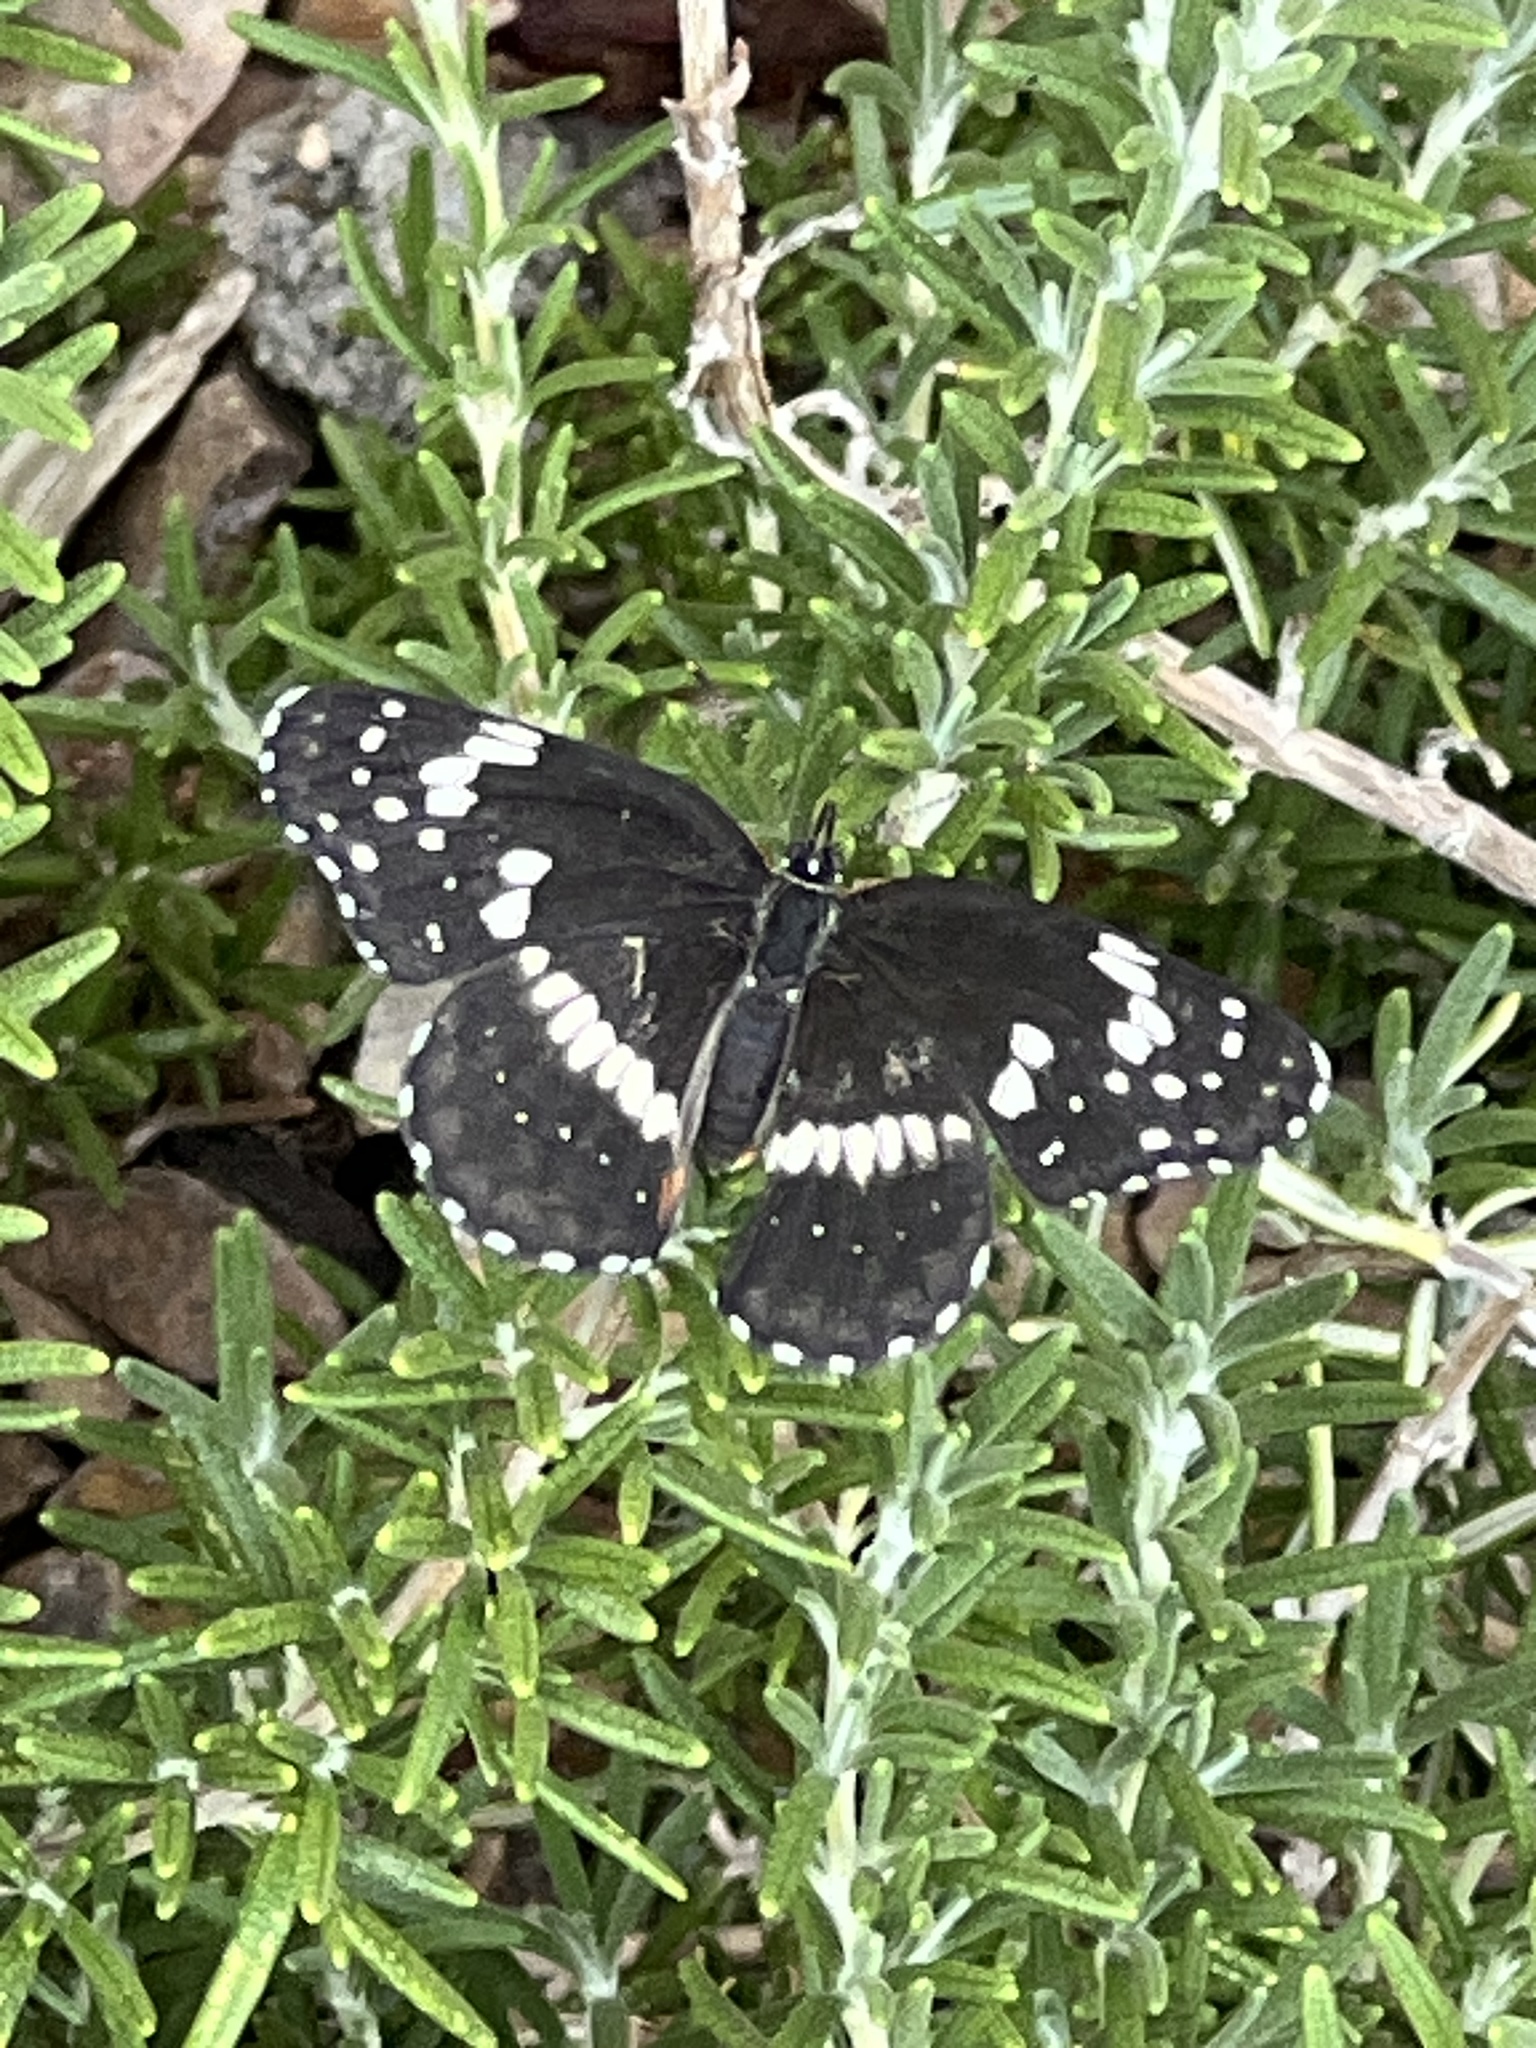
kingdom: Animalia
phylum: Arthropoda
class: Insecta
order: Lepidoptera
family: Nymphalidae
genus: Chlosyne
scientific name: Chlosyne lacinia
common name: Bordered patch
